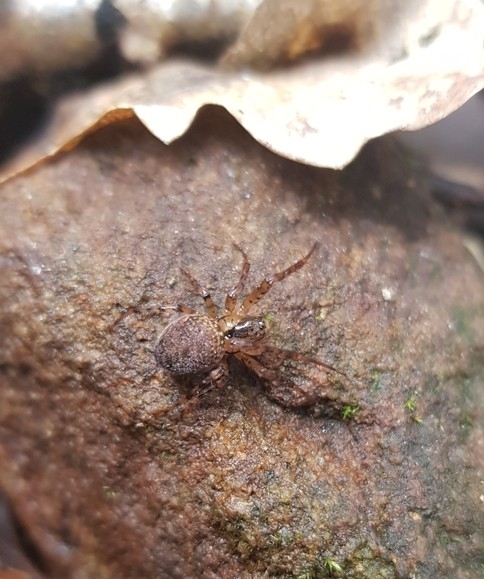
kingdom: Animalia
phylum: Arthropoda
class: Arachnida
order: Araneae
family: Tetragnathidae
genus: Metellina
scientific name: Metellina merianae
